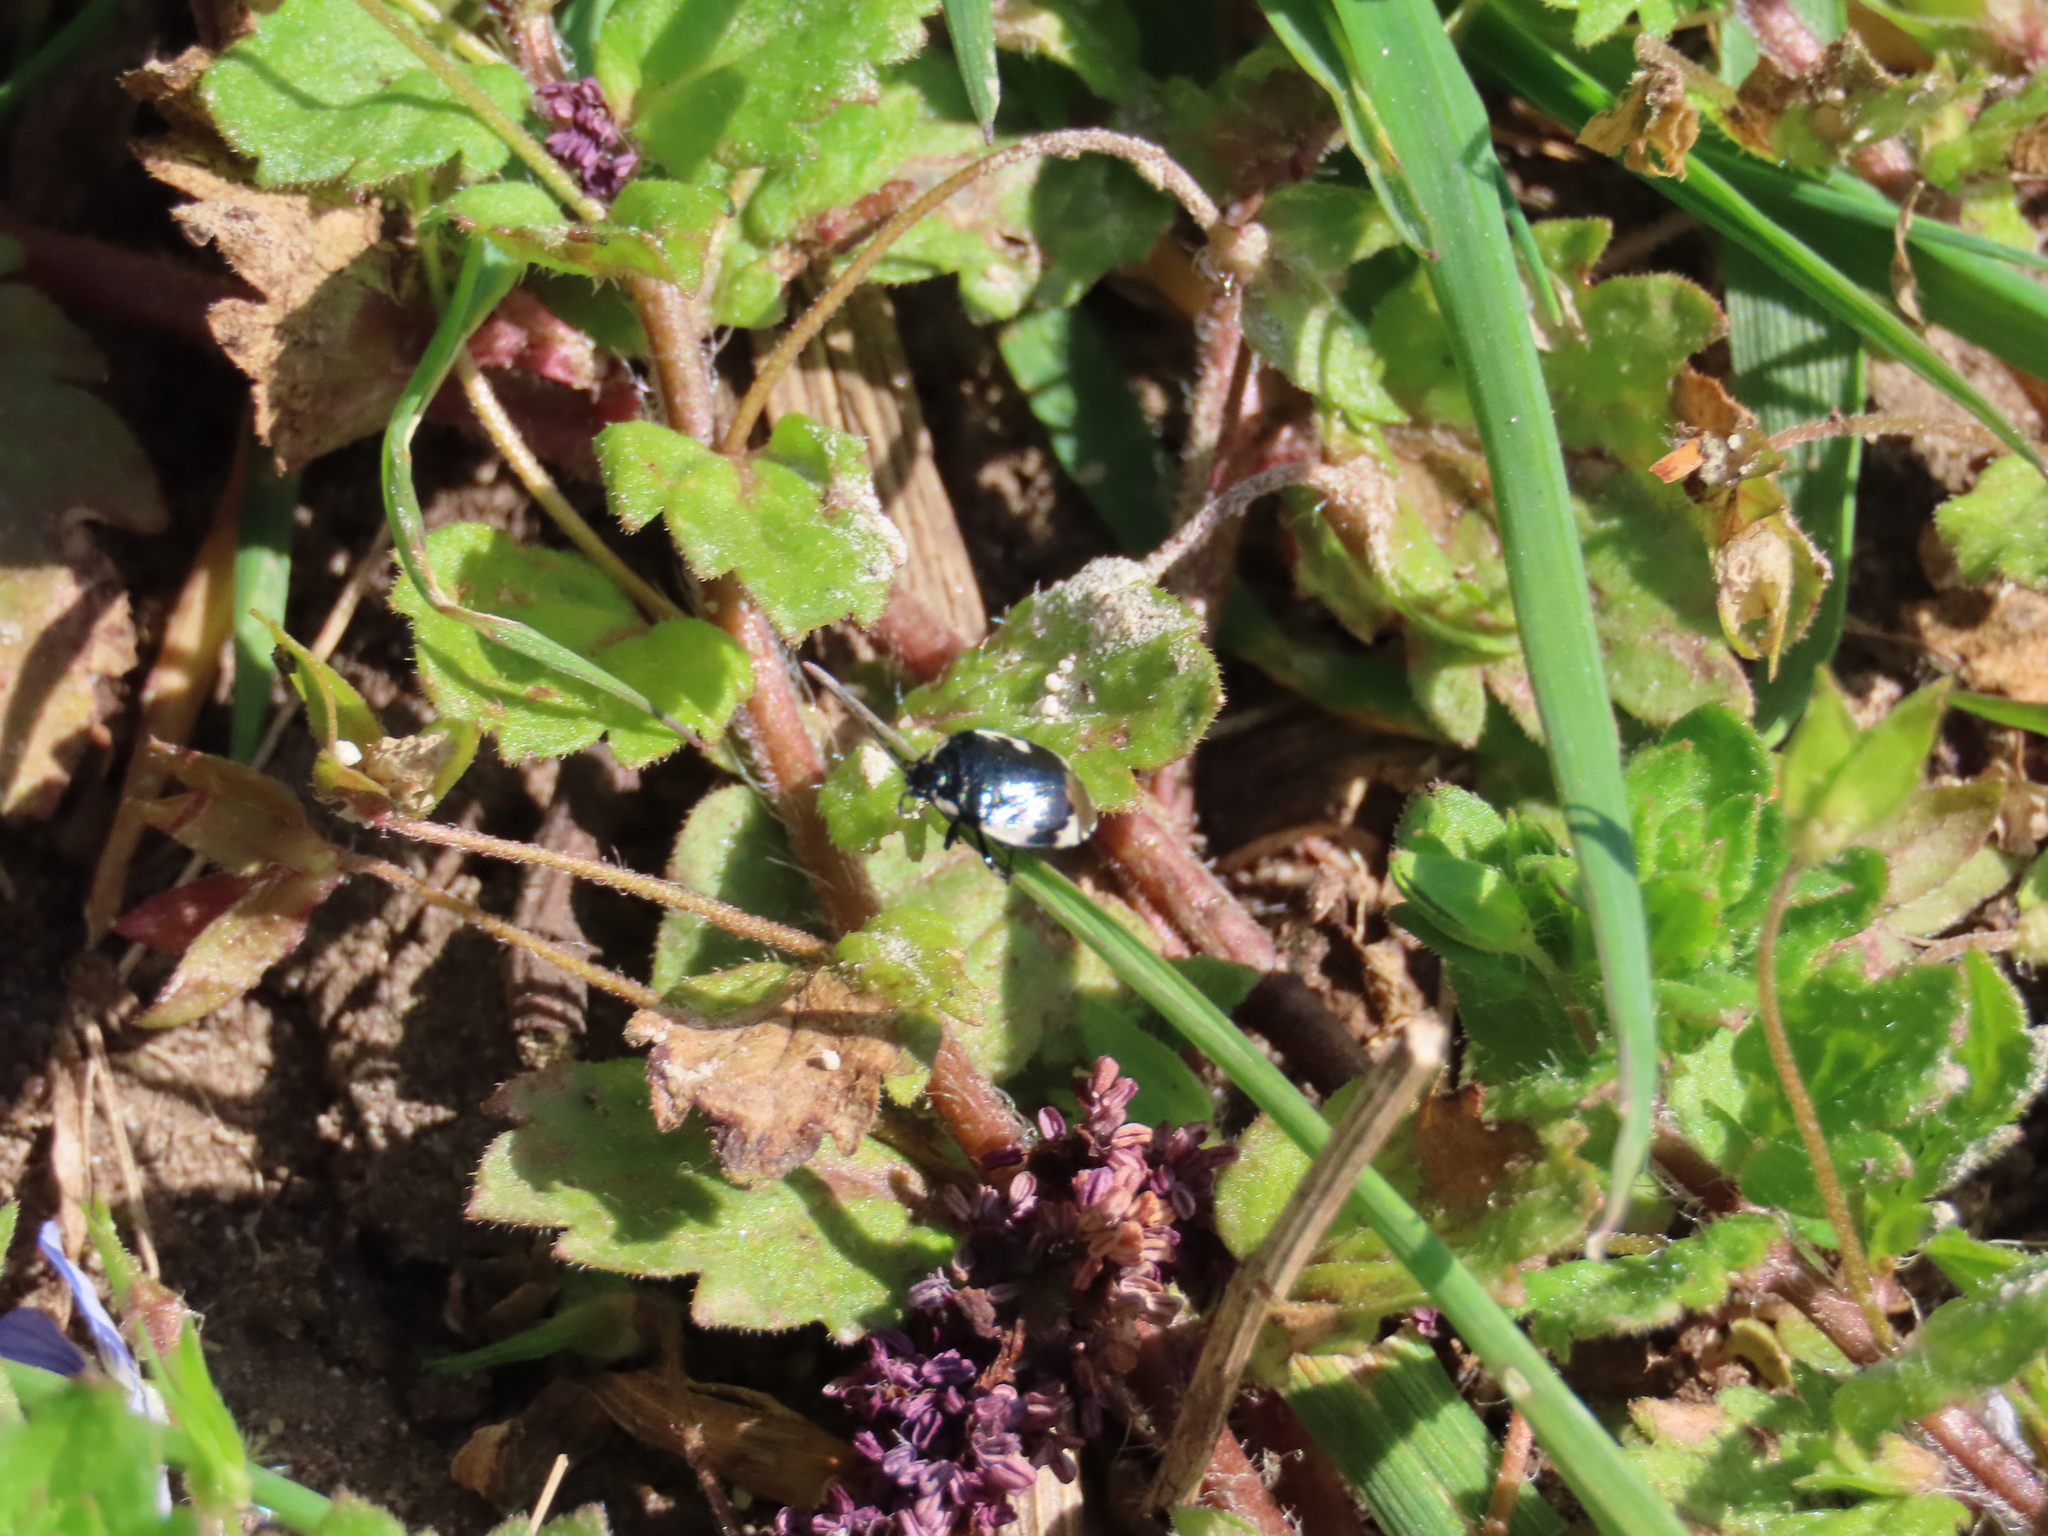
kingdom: Animalia
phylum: Arthropoda
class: Insecta
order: Hemiptera
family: Cydnidae
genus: Tritomegas
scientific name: Tritomegas bicolor
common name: Pied shieldbug
